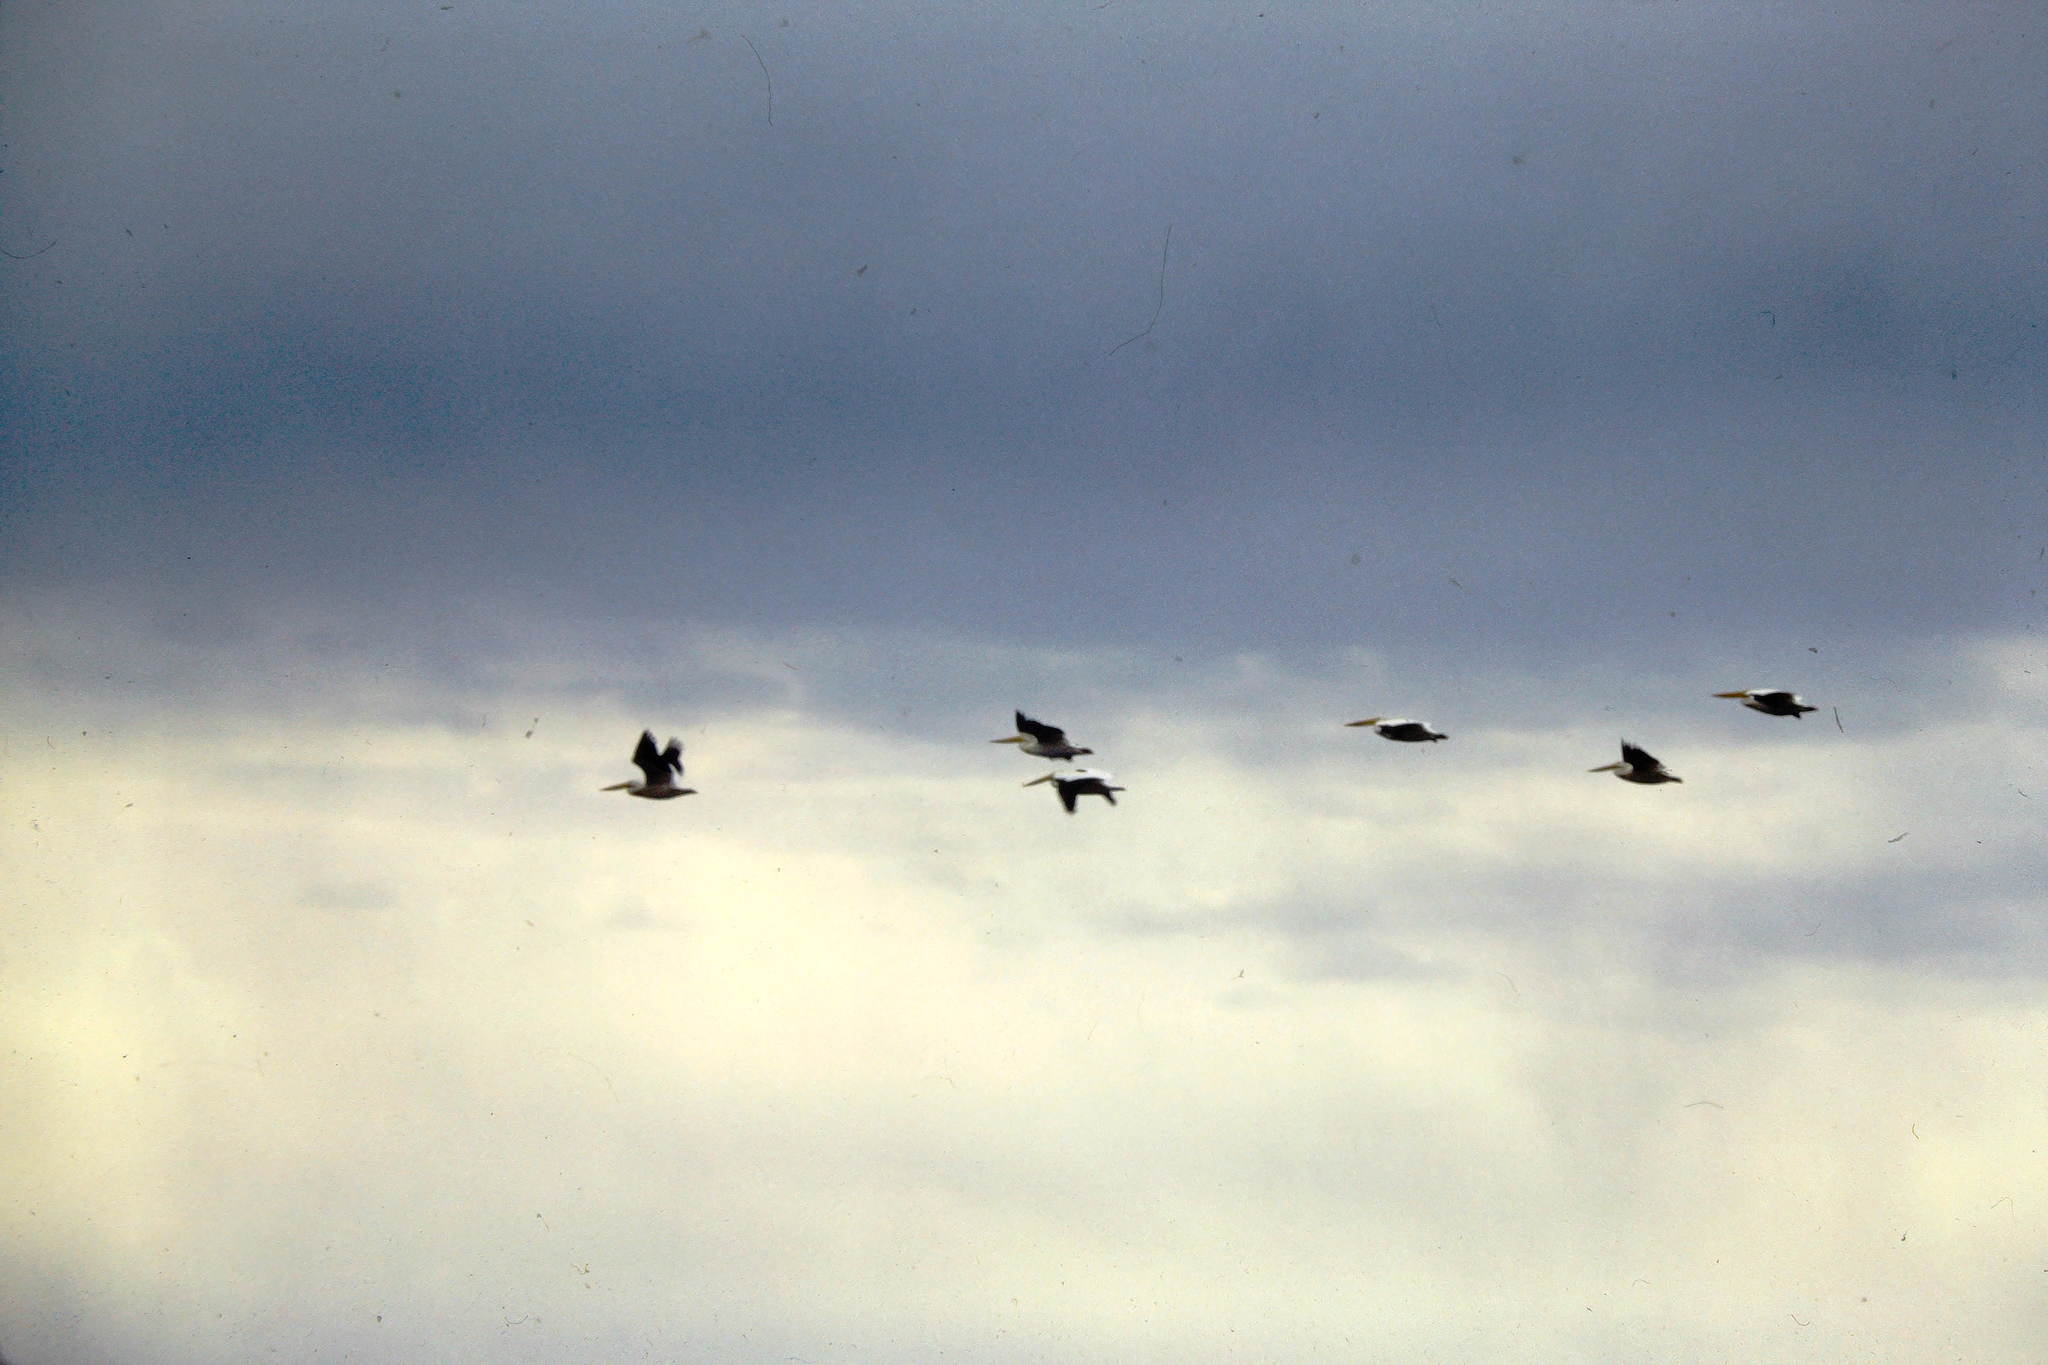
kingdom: Animalia
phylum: Chordata
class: Aves
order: Pelecaniformes
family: Pelecanidae
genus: Pelecanus
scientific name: Pelecanus erythrorhynchos
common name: American white pelican
